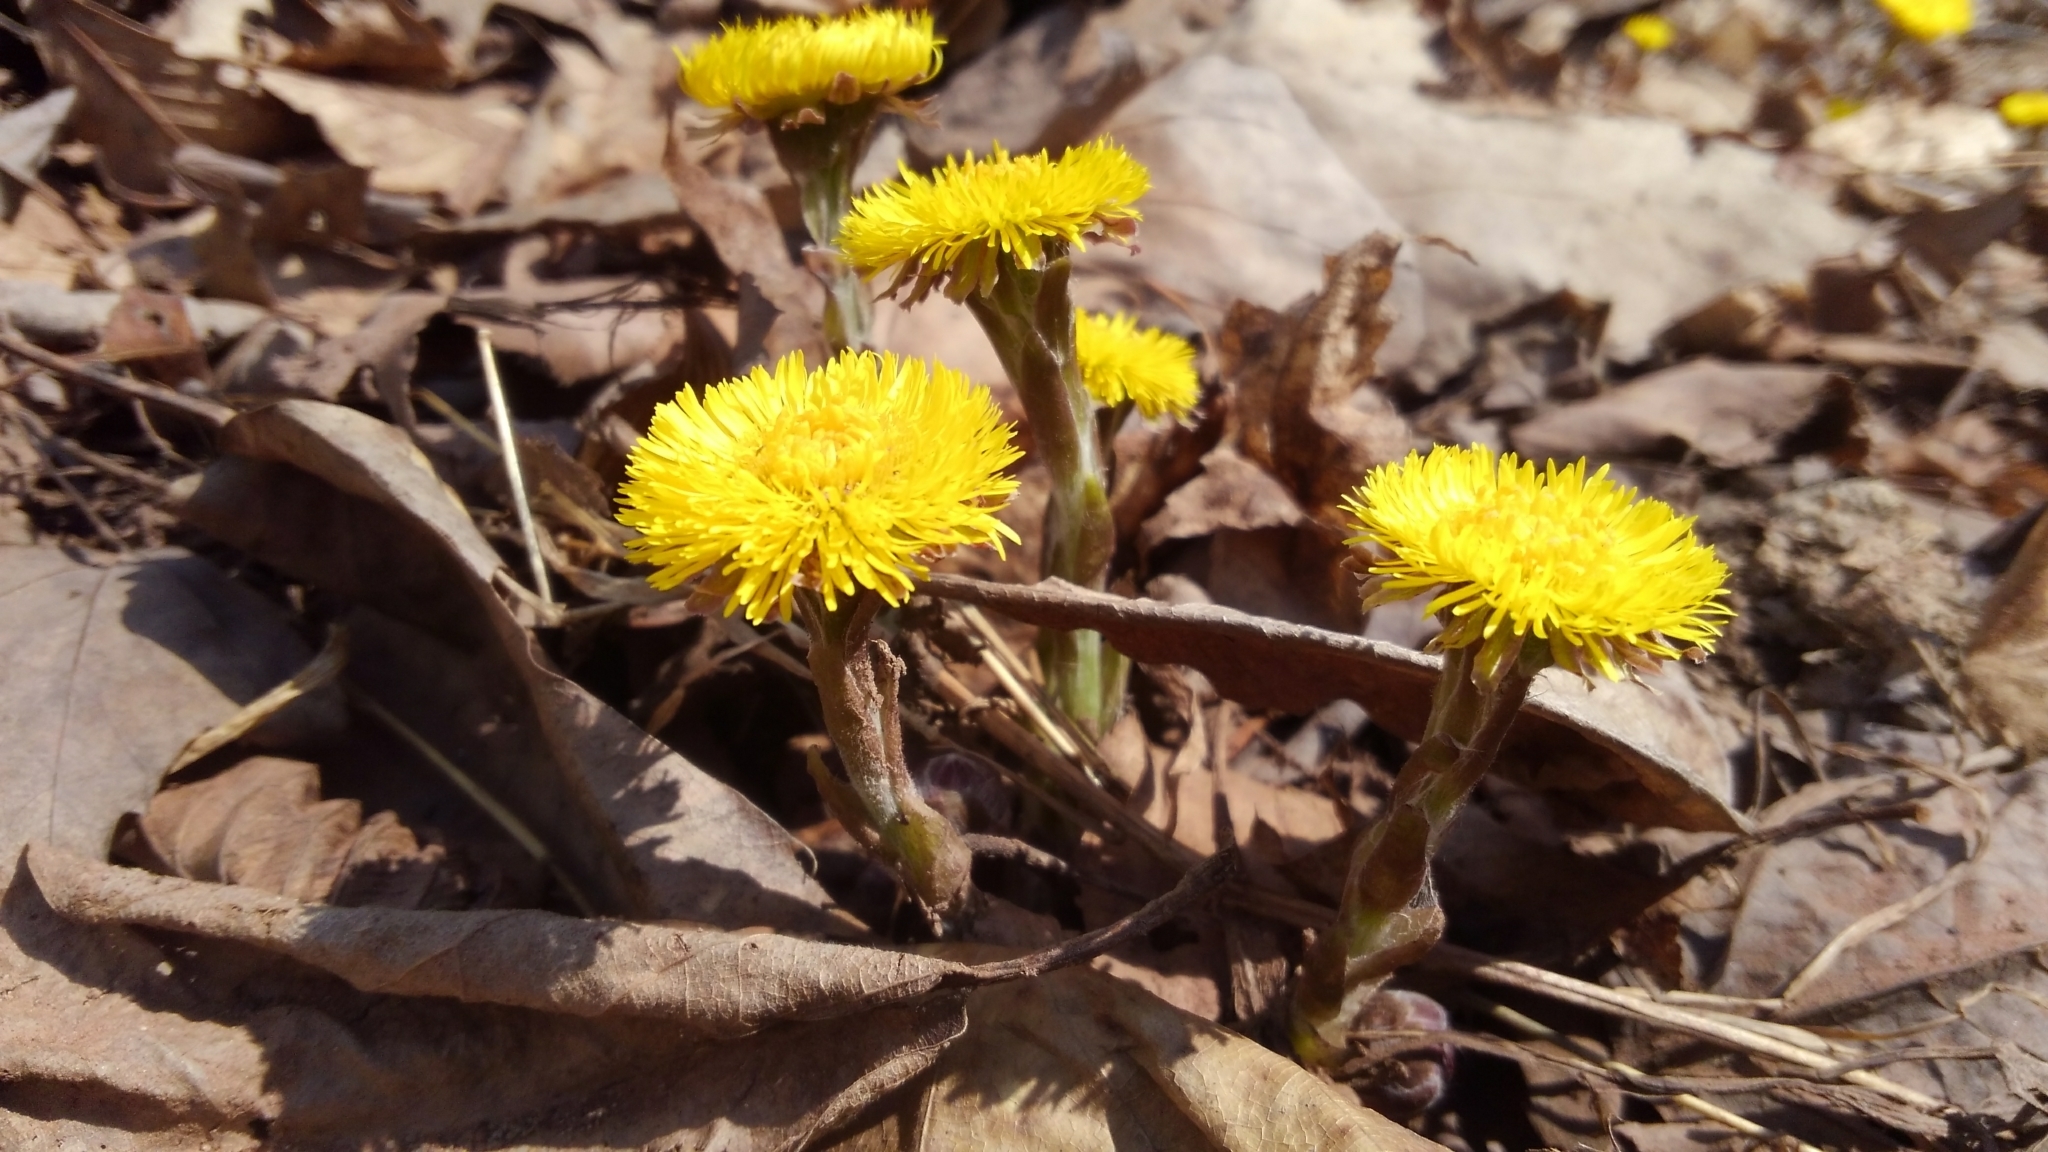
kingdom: Plantae
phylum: Tracheophyta
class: Magnoliopsida
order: Asterales
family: Asteraceae
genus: Tussilago
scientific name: Tussilago farfara
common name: Coltsfoot
